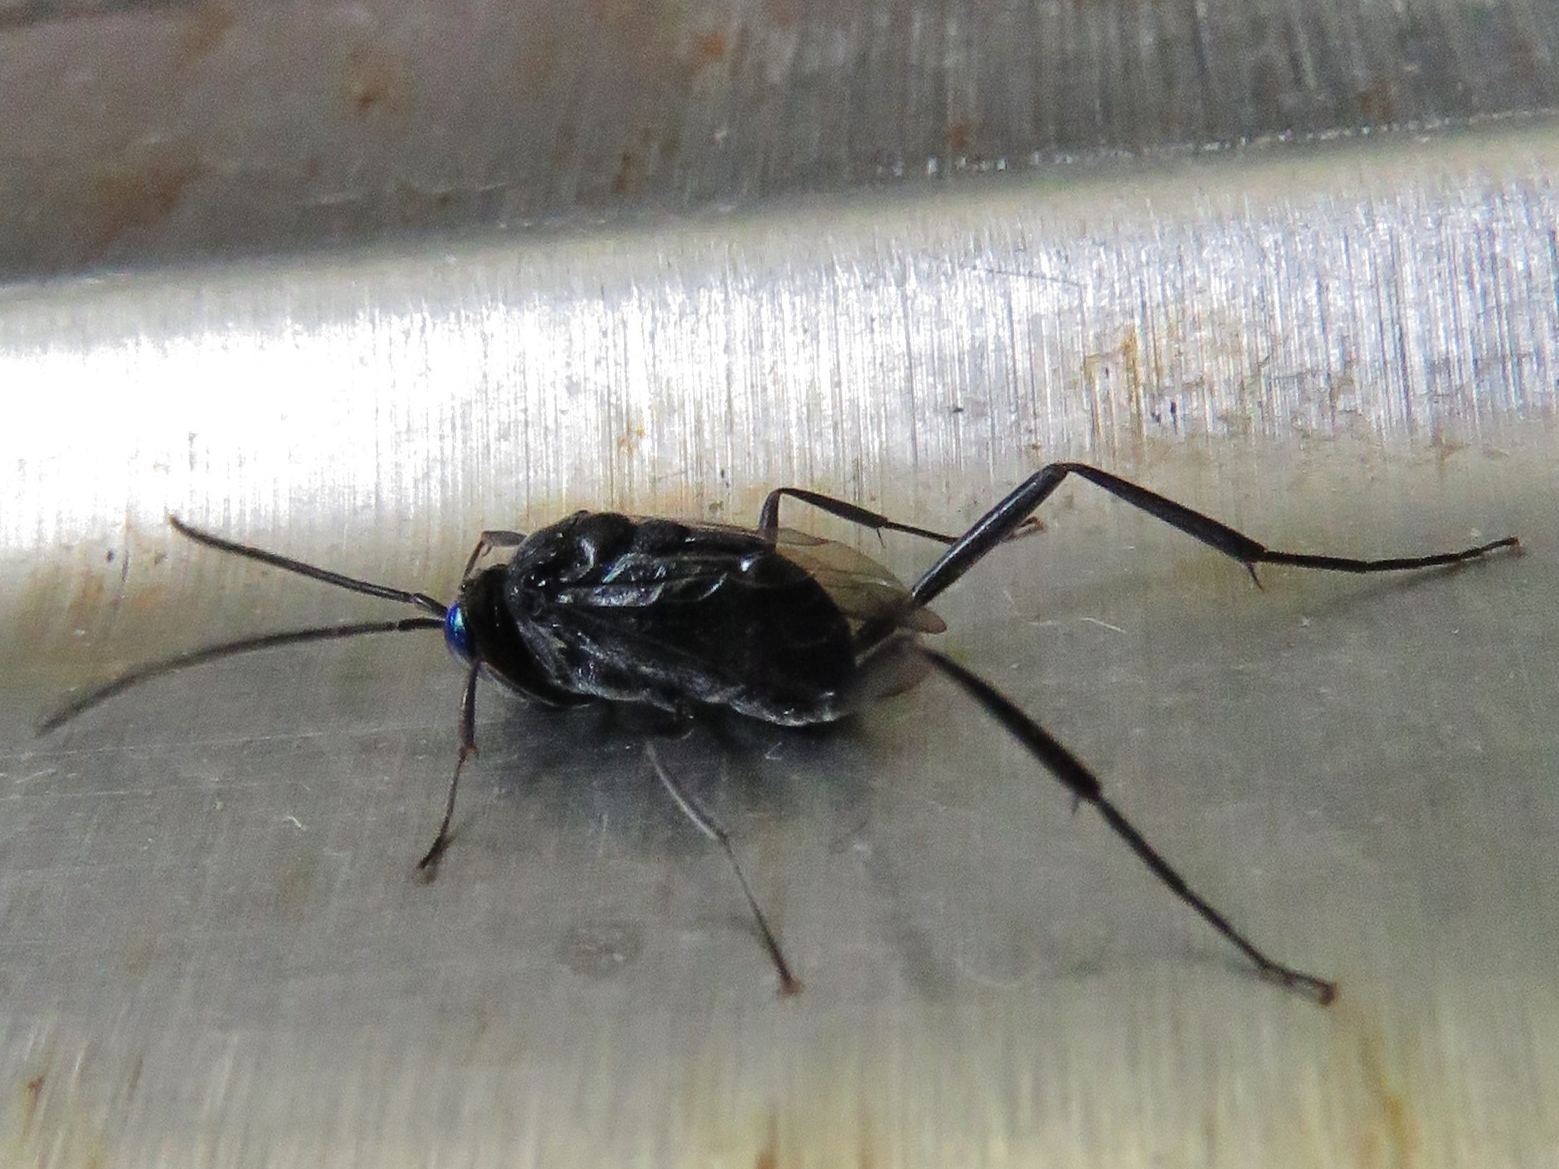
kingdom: Animalia
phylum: Arthropoda
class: Insecta
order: Hymenoptera
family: Evaniidae
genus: Evania
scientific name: Evania appendigaster
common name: Ensign wasp
